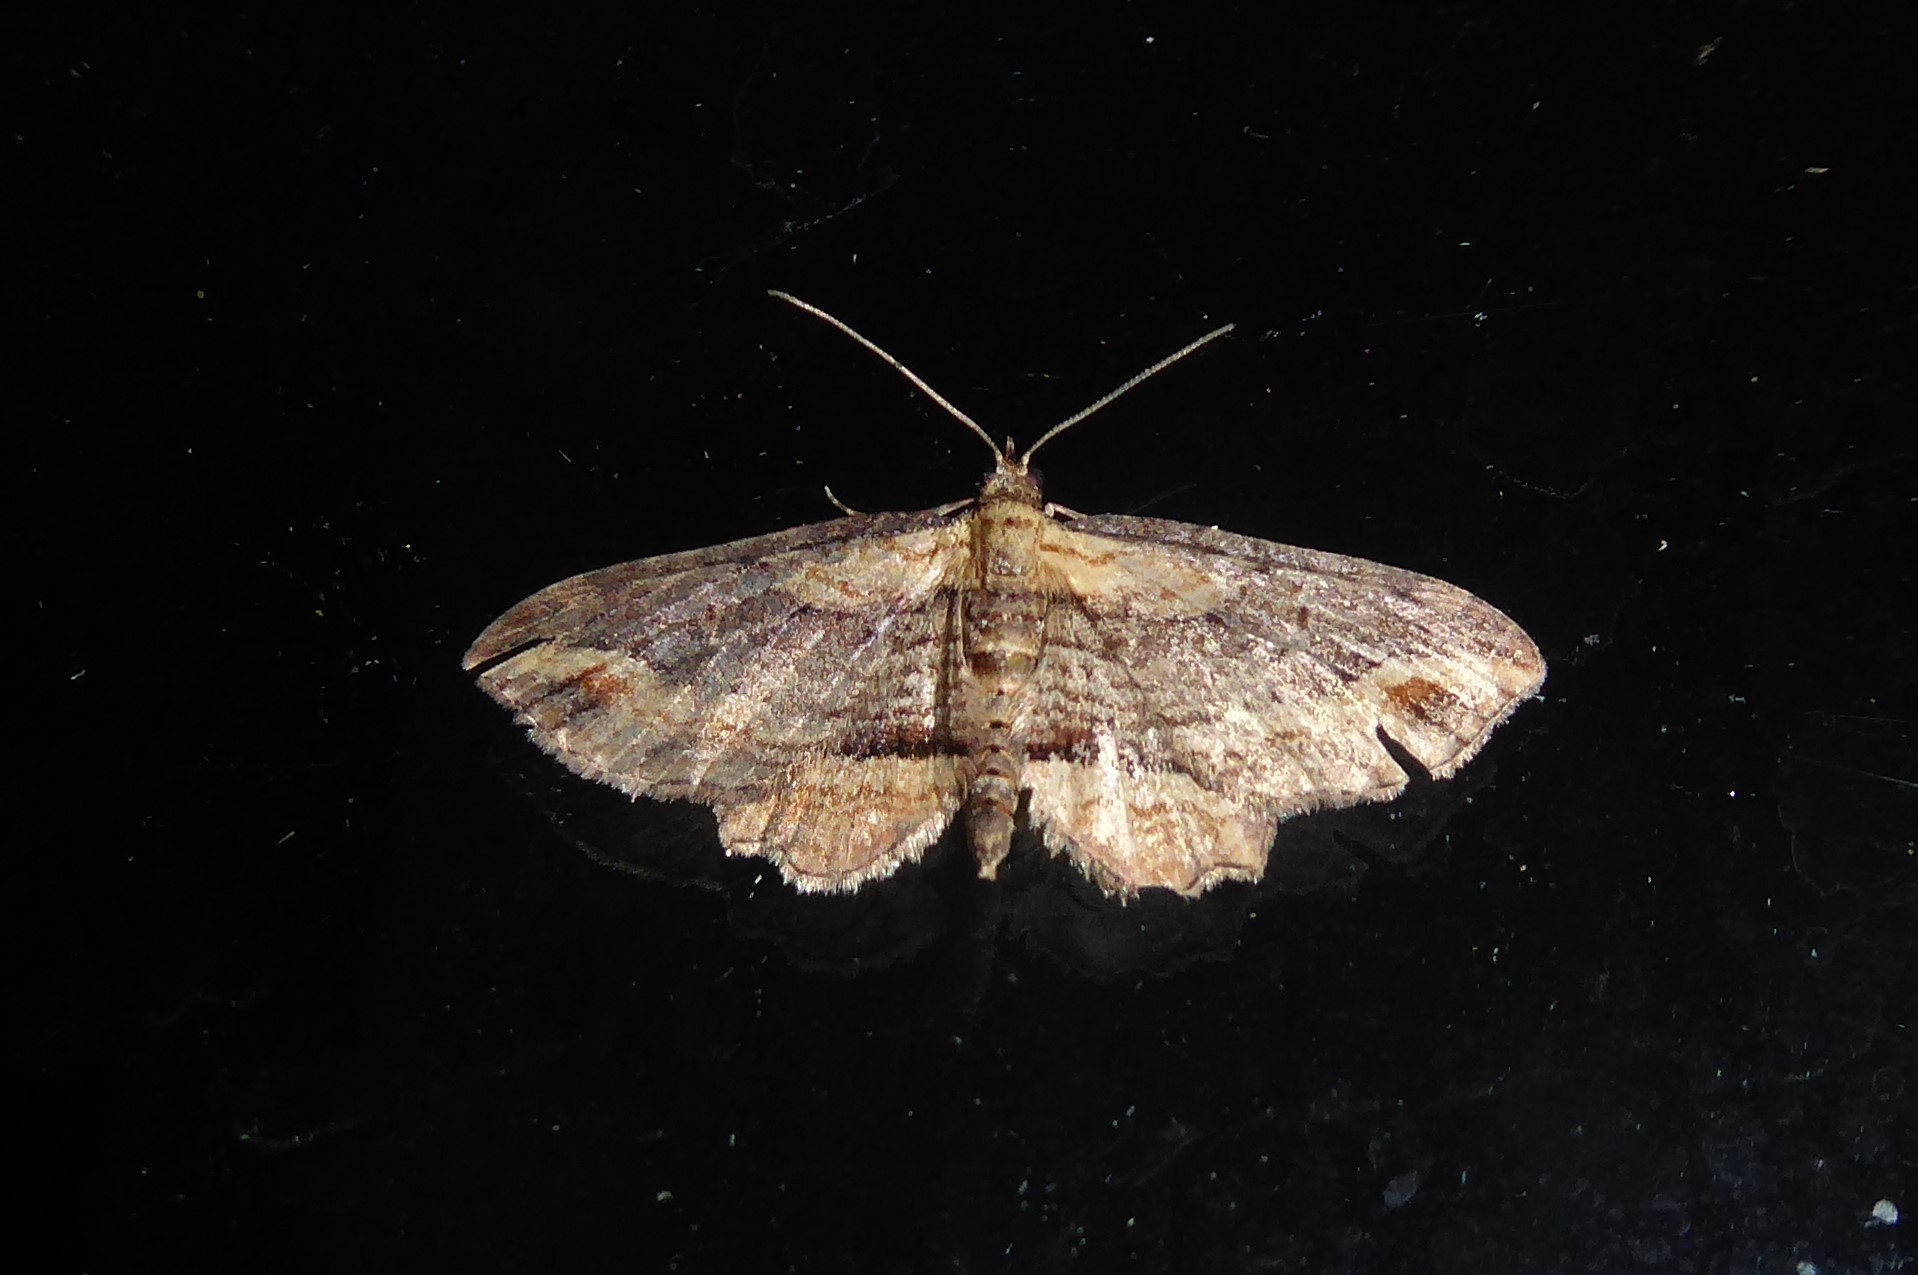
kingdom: Animalia
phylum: Arthropoda
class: Insecta
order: Lepidoptera
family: Geometridae
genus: Chloroclystis
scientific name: Chloroclystis filata
